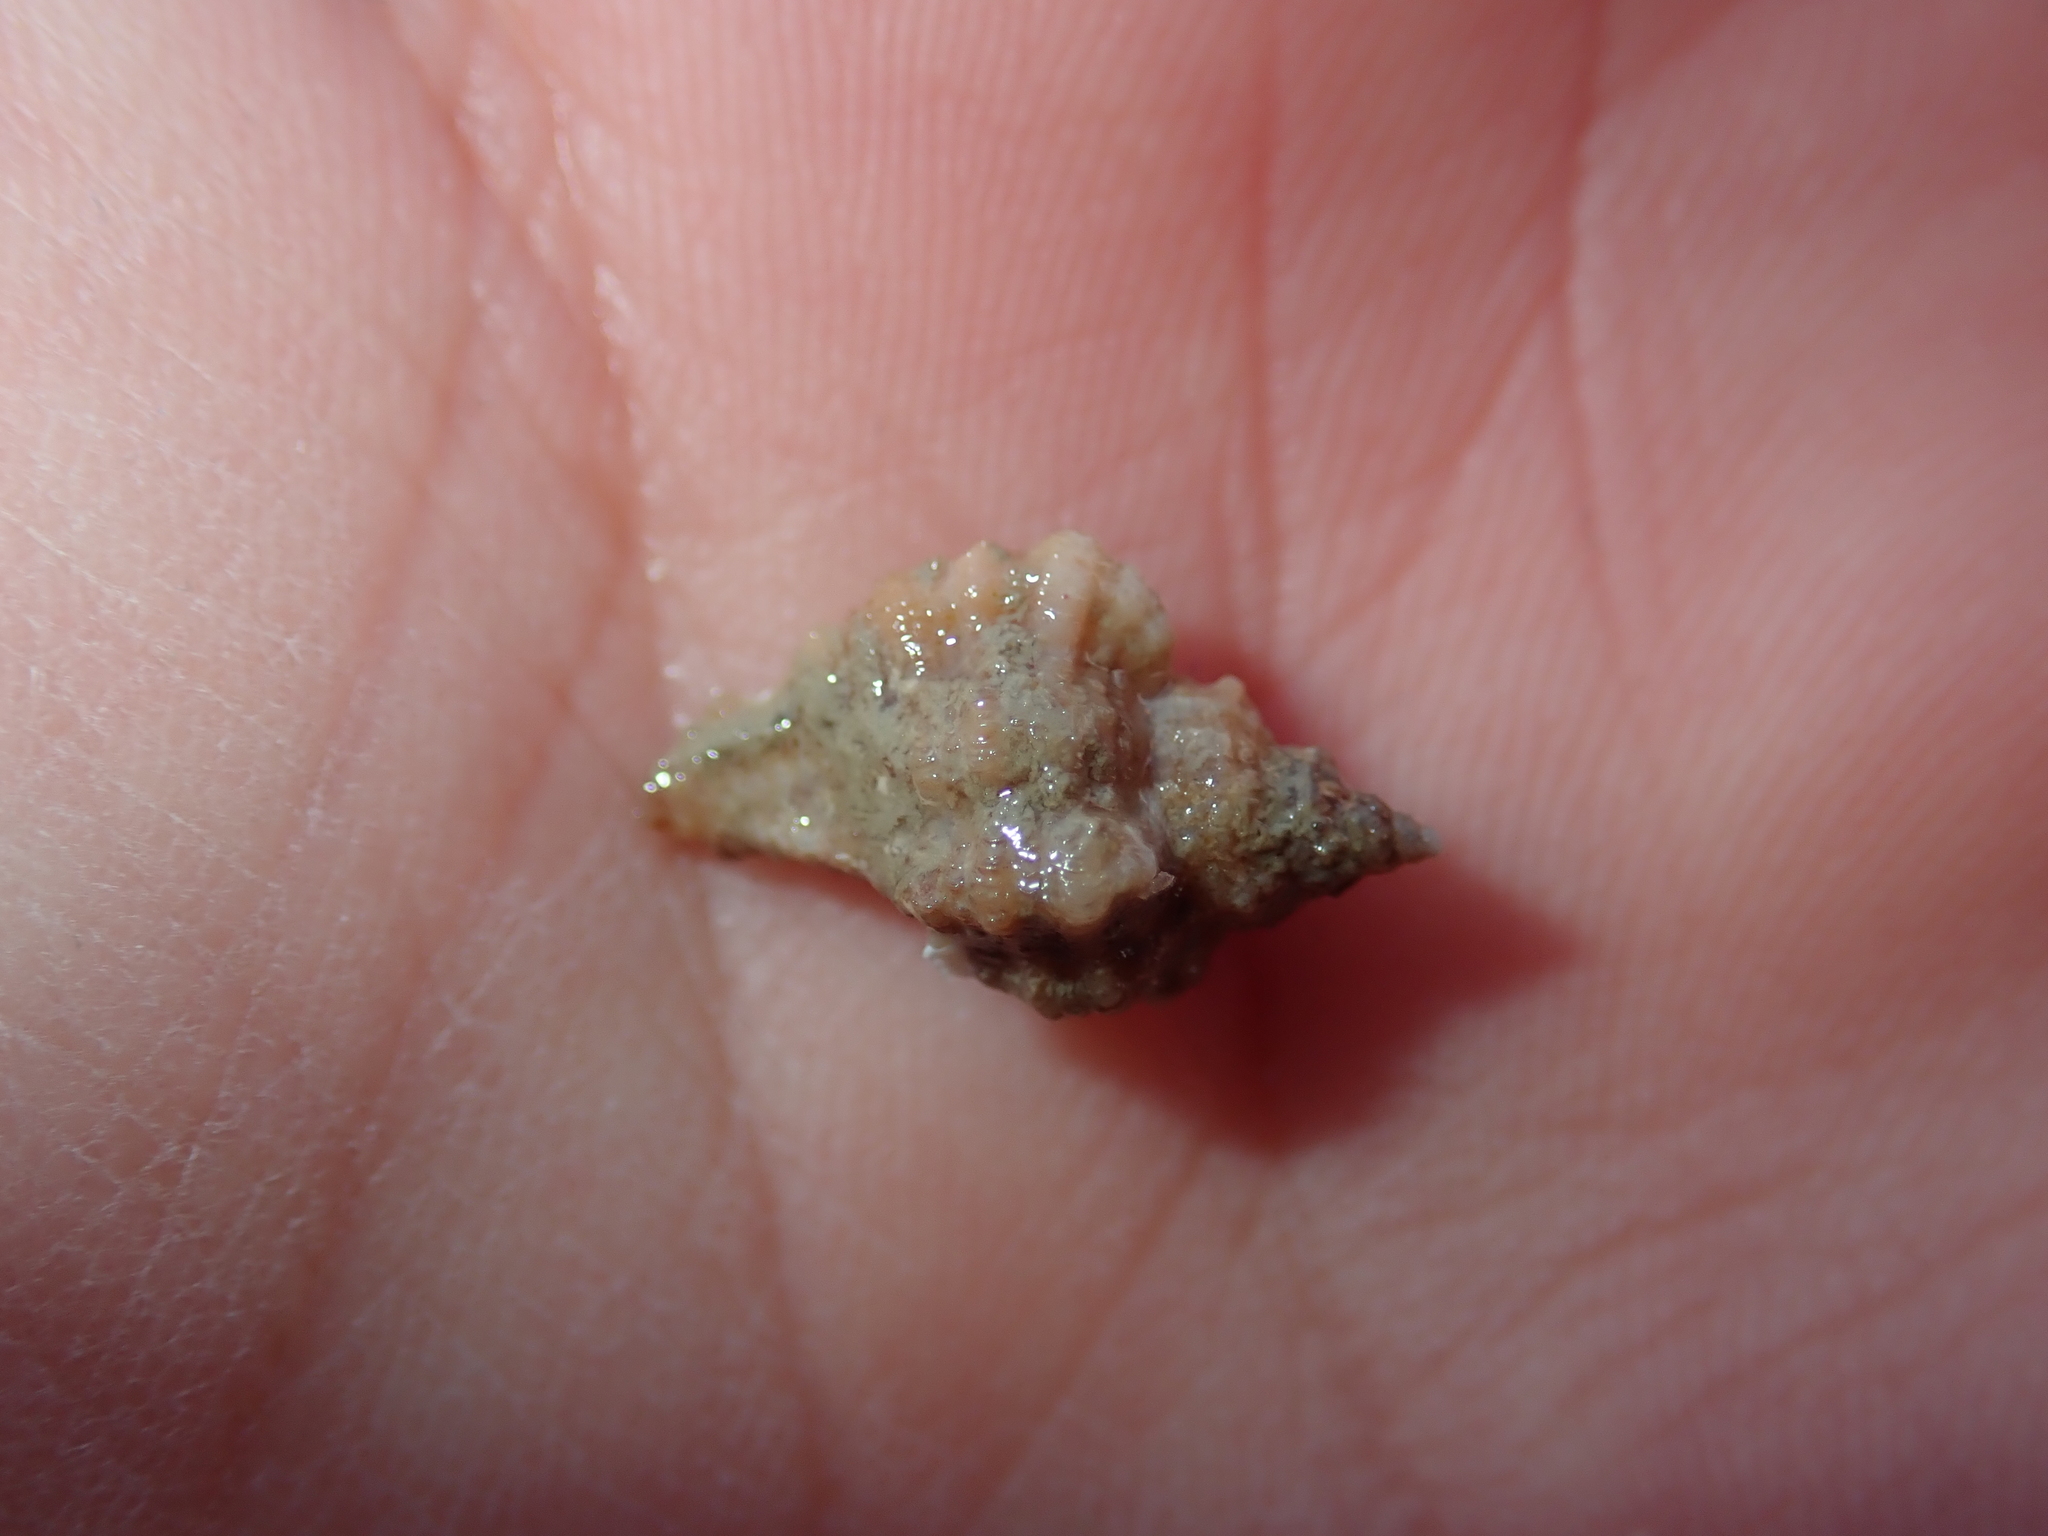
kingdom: Animalia
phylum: Mollusca
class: Gastropoda
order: Neogastropoda
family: Muricidae
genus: Ocenebra
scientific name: Ocenebra erinaceus
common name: European sting winkle
